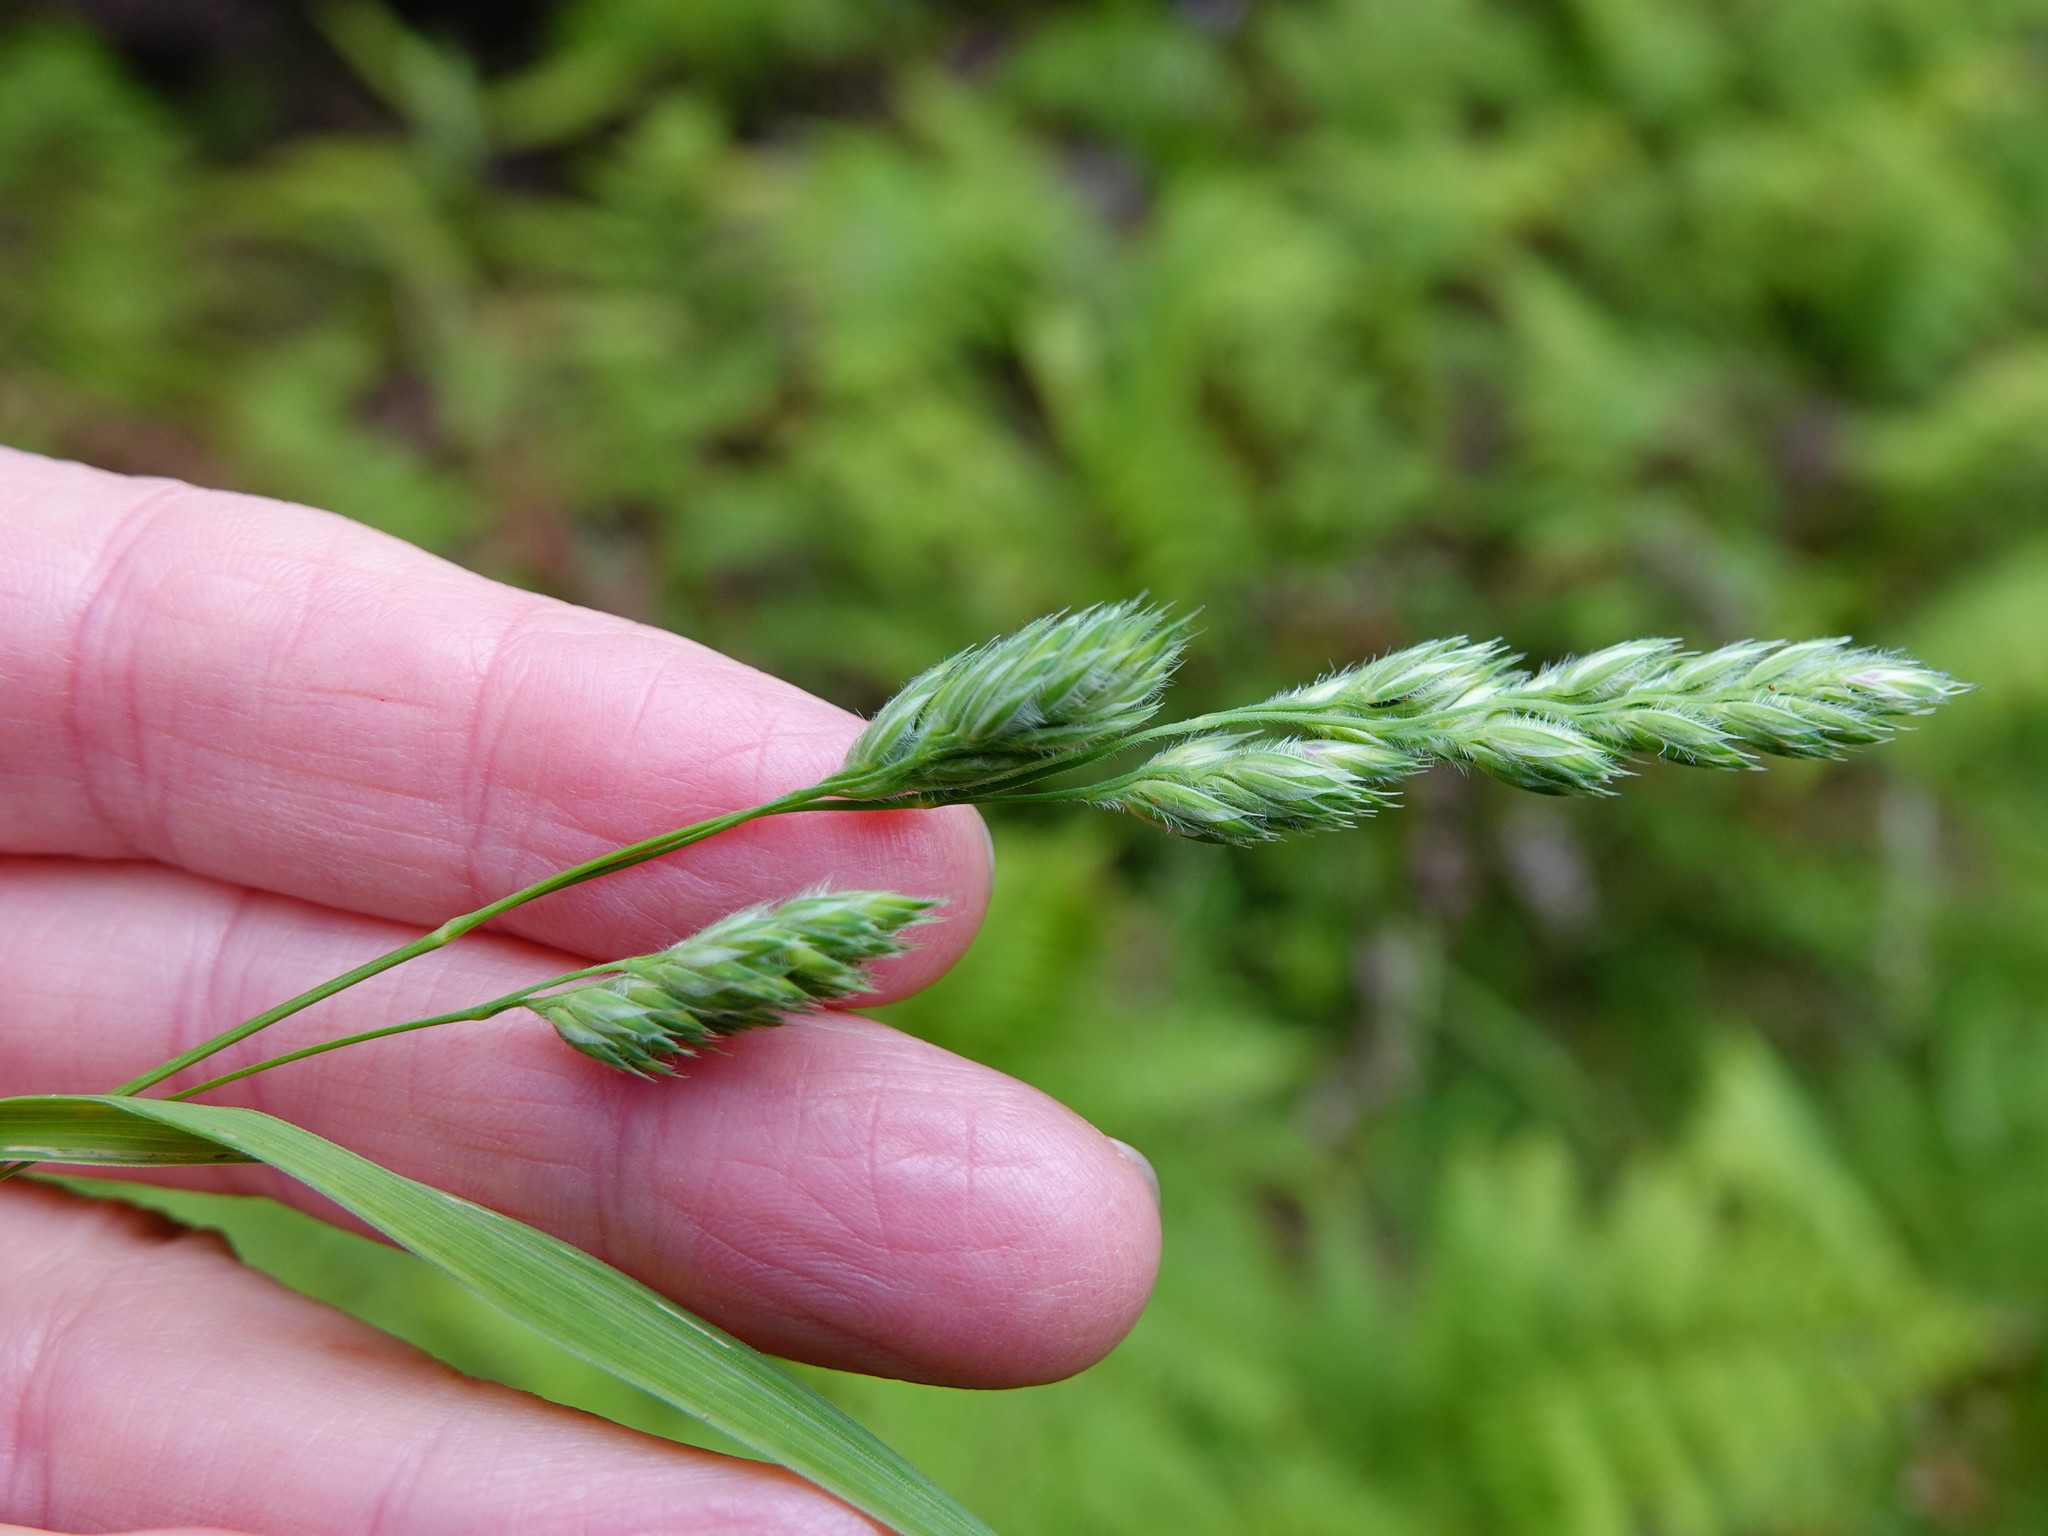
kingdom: Plantae
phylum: Tracheophyta
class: Liliopsida
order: Poales
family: Poaceae
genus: Dactylis
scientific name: Dactylis glomerata
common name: Orchardgrass
